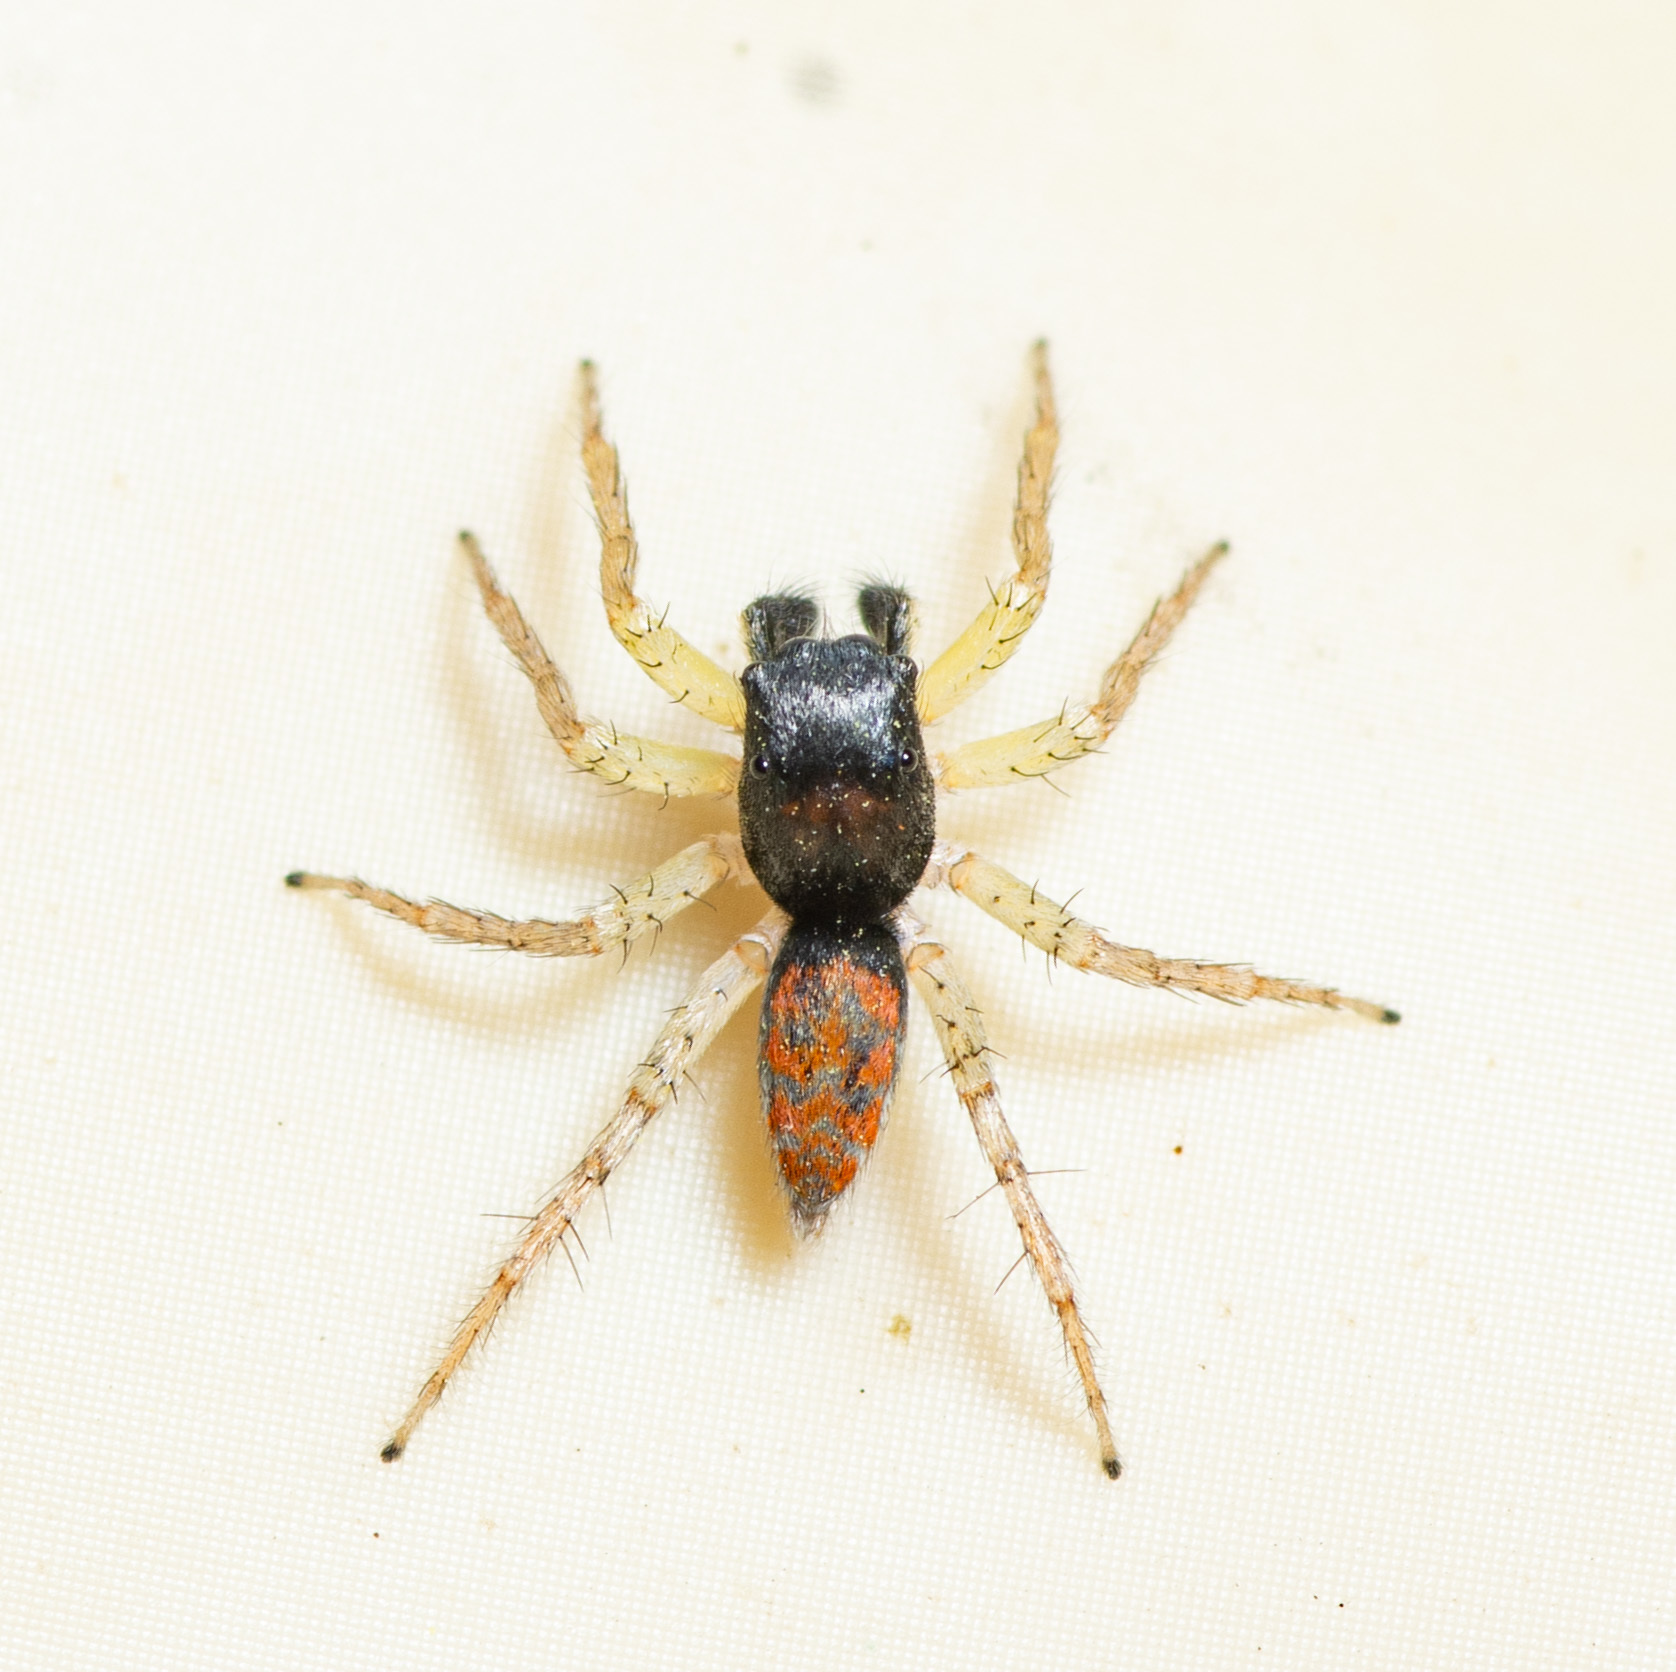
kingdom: Animalia
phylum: Arthropoda
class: Arachnida
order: Araneae
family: Salticidae
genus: Maevia
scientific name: Maevia inclemens
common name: Dimorphic jumper
